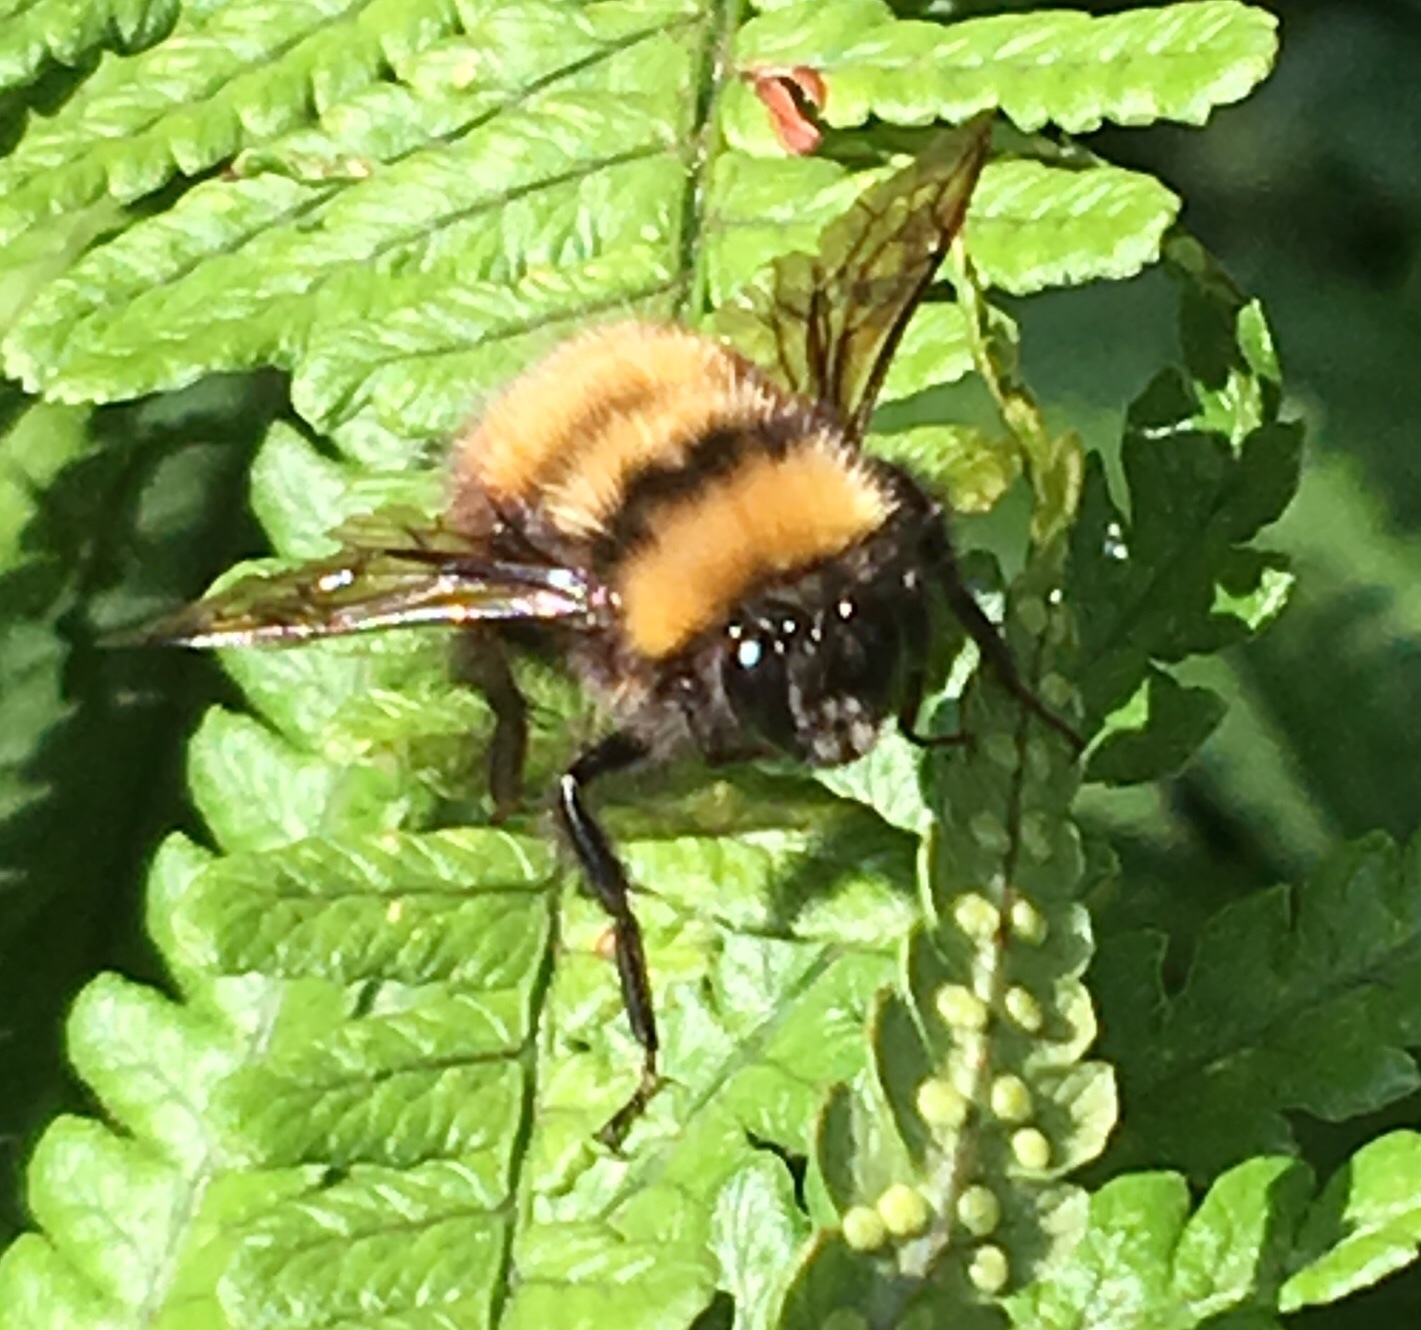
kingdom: Animalia
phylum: Arthropoda
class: Insecta
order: Hymenoptera
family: Apidae
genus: Bombus
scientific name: Bombus hortulanus
